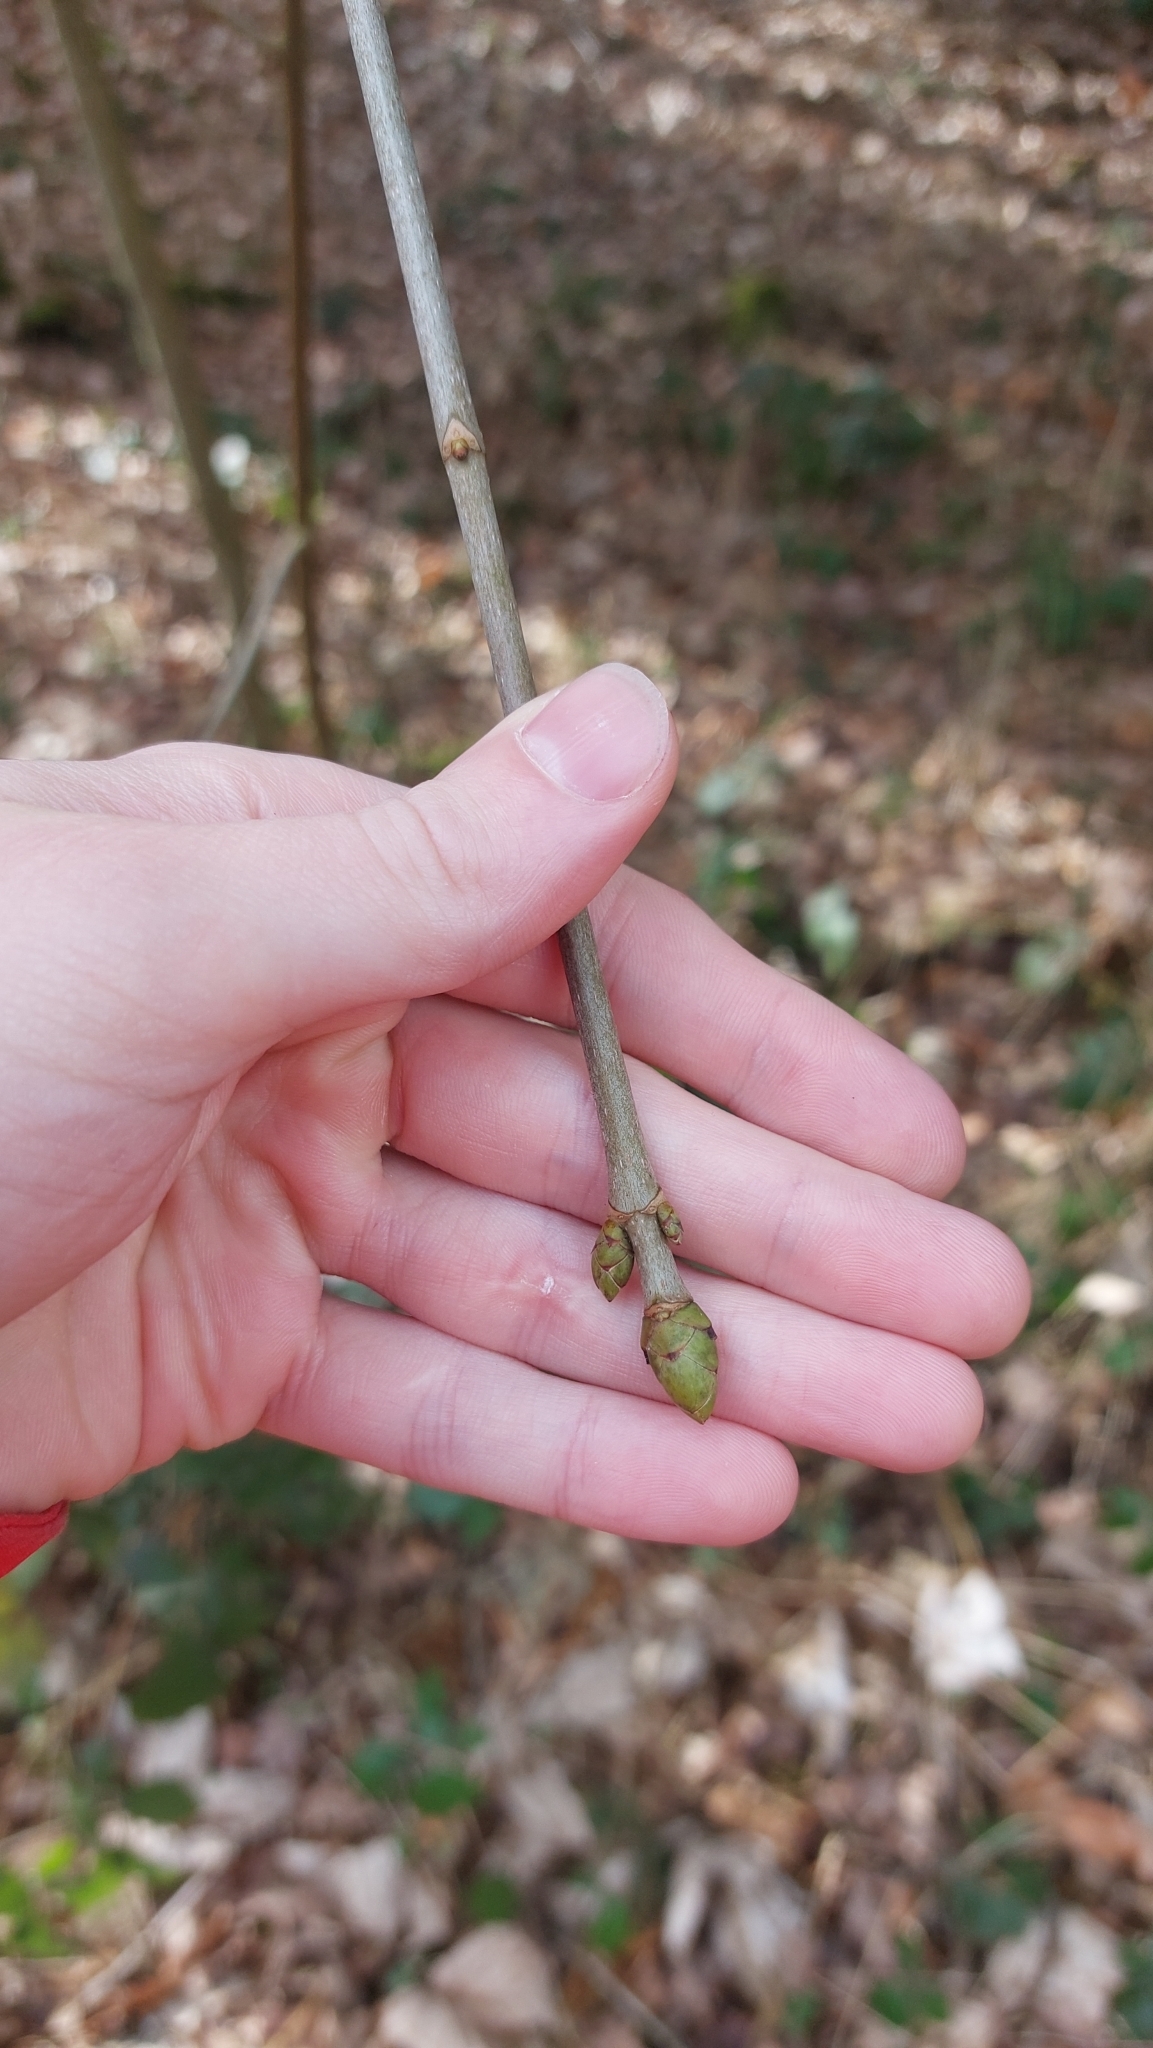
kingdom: Plantae
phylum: Tracheophyta
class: Magnoliopsida
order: Sapindales
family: Sapindaceae
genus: Acer
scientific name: Acer pseudoplatanus
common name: Sycamore
